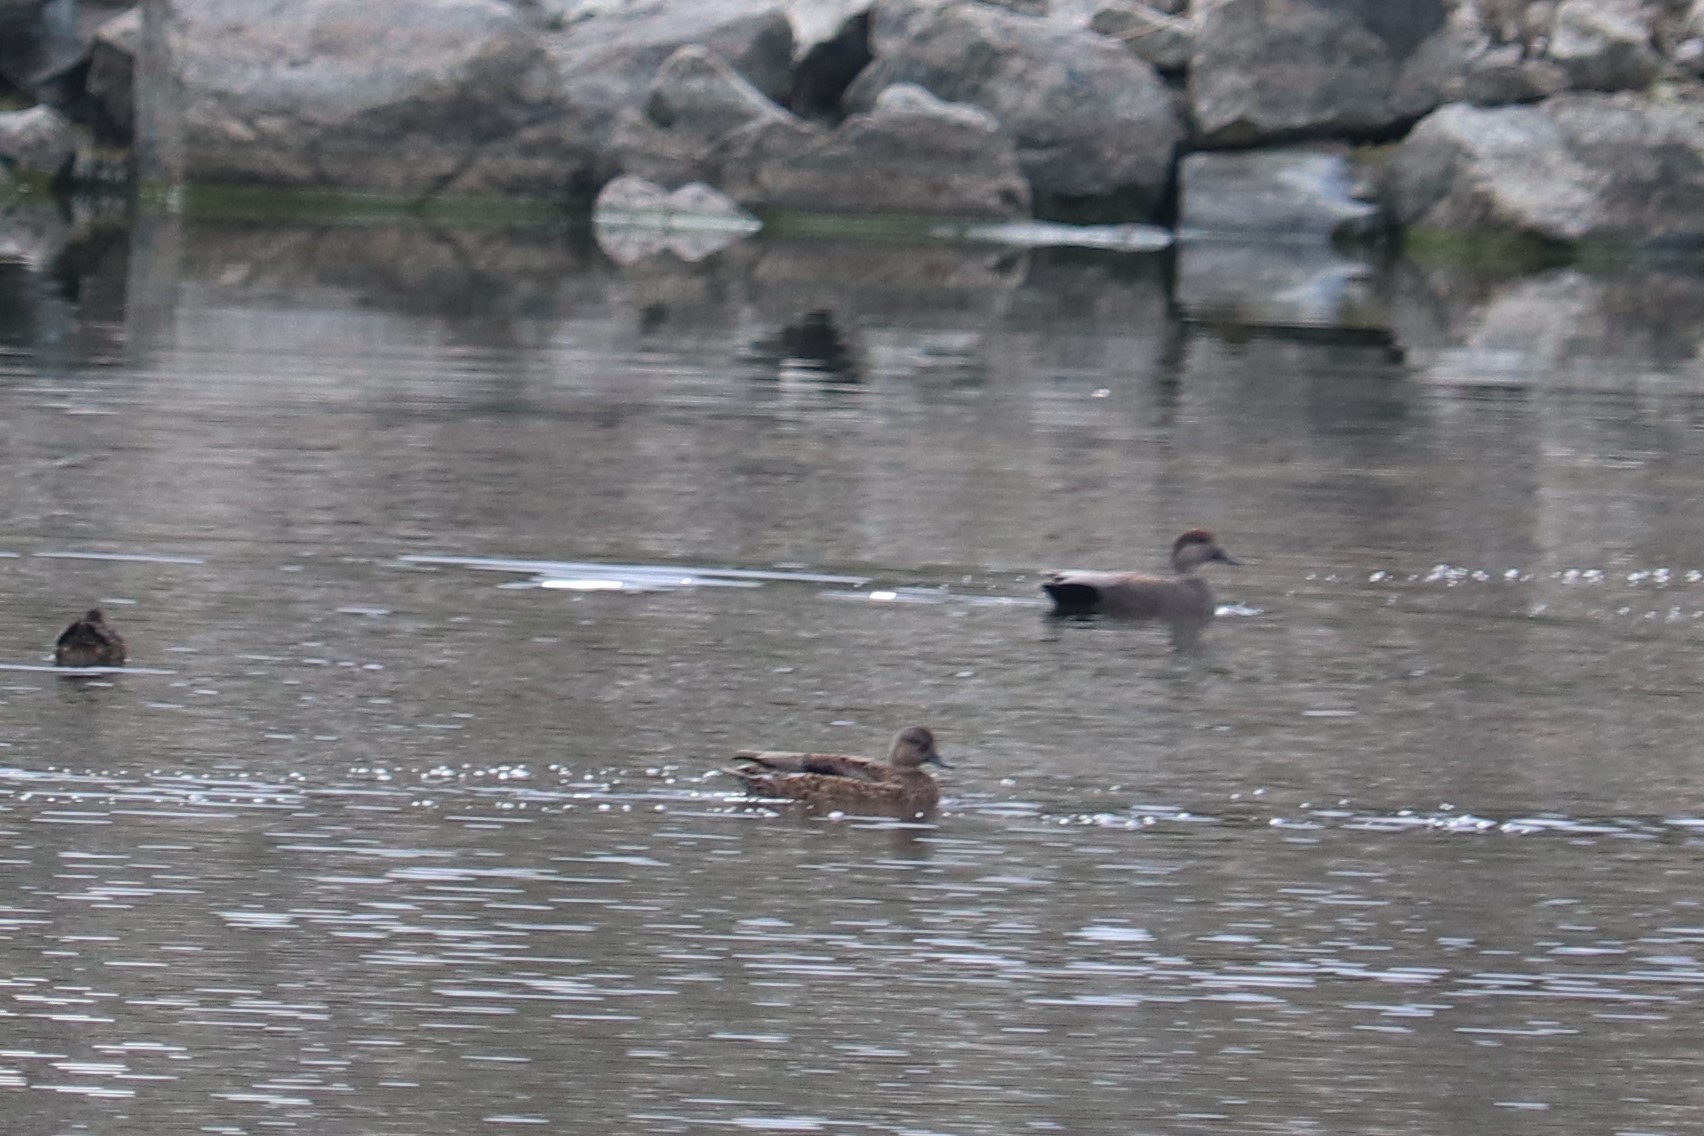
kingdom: Animalia
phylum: Chordata
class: Aves
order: Anseriformes
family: Anatidae
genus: Mareca
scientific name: Mareca strepera
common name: Gadwall
